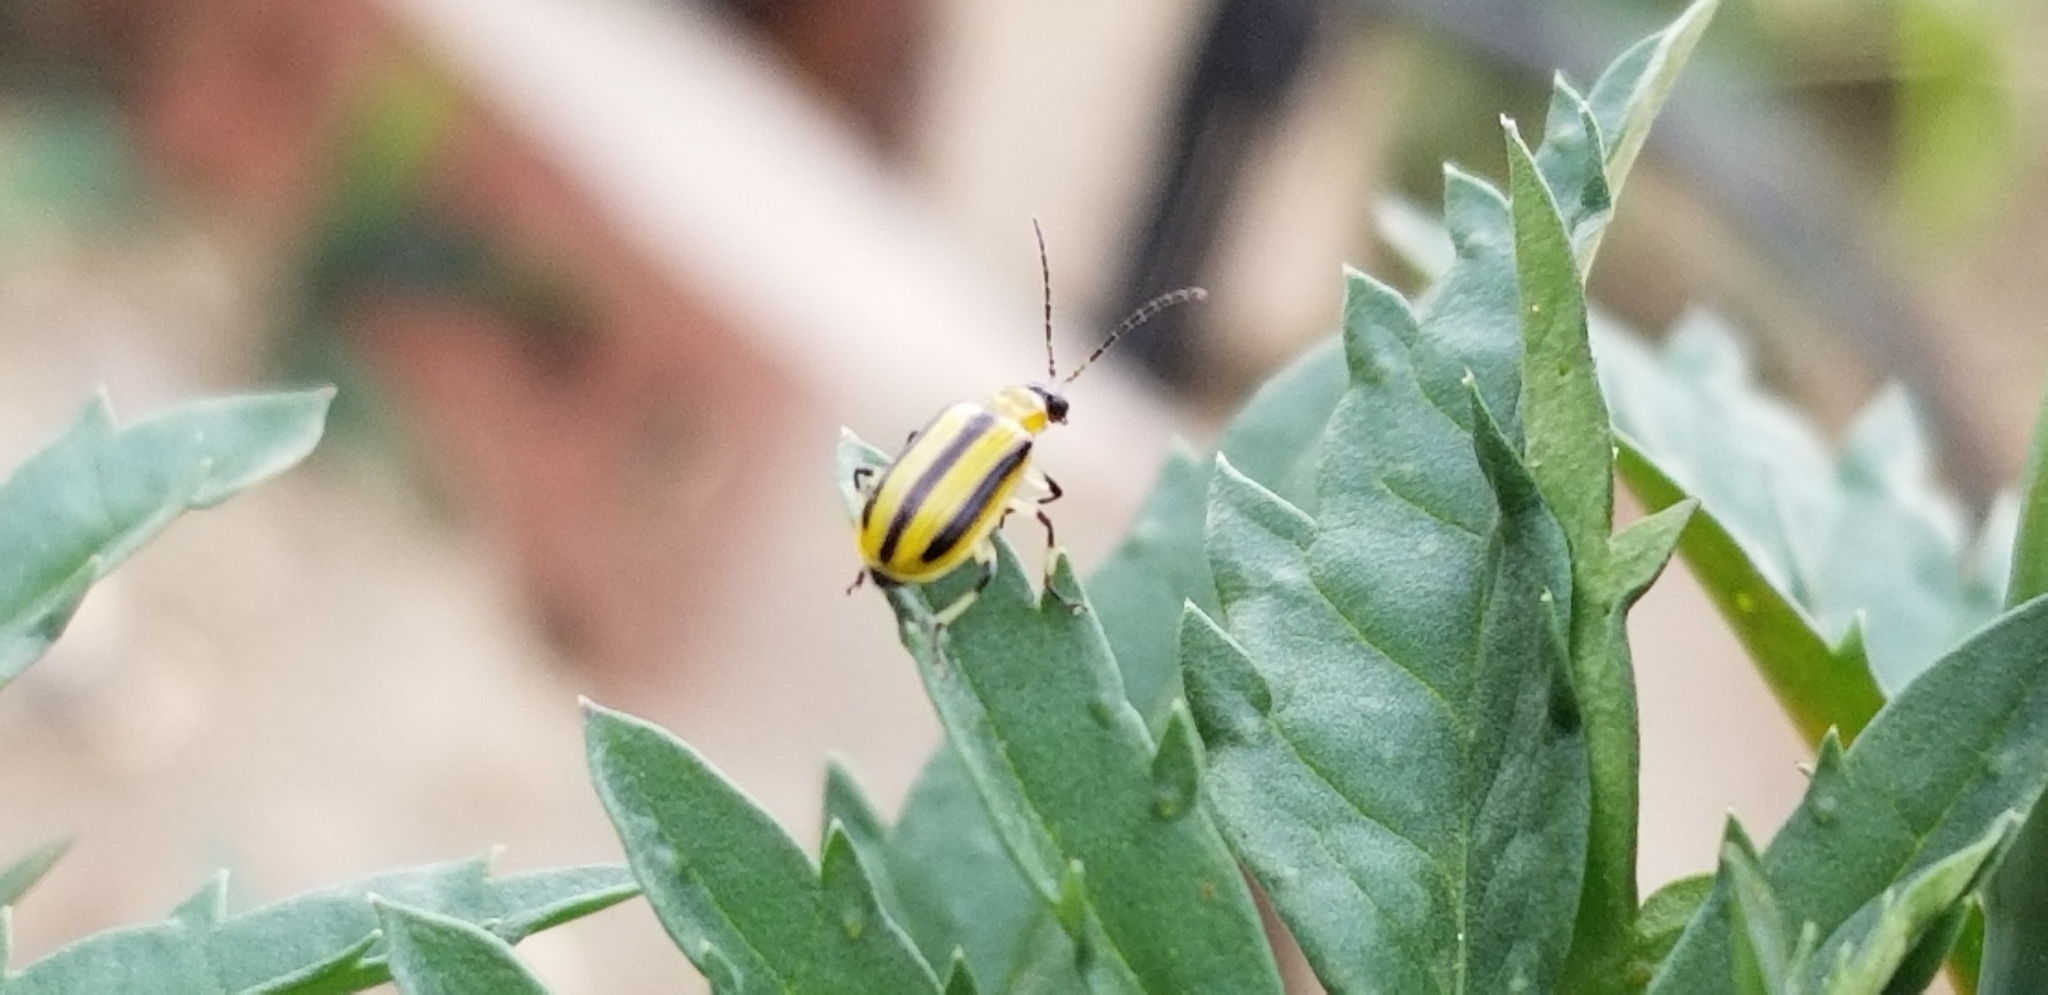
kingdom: Animalia
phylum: Arthropoda
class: Insecta
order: Coleoptera
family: Chrysomelidae
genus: Acalymma
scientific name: Acalymma vittatum
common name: Striped cucumber beetle
